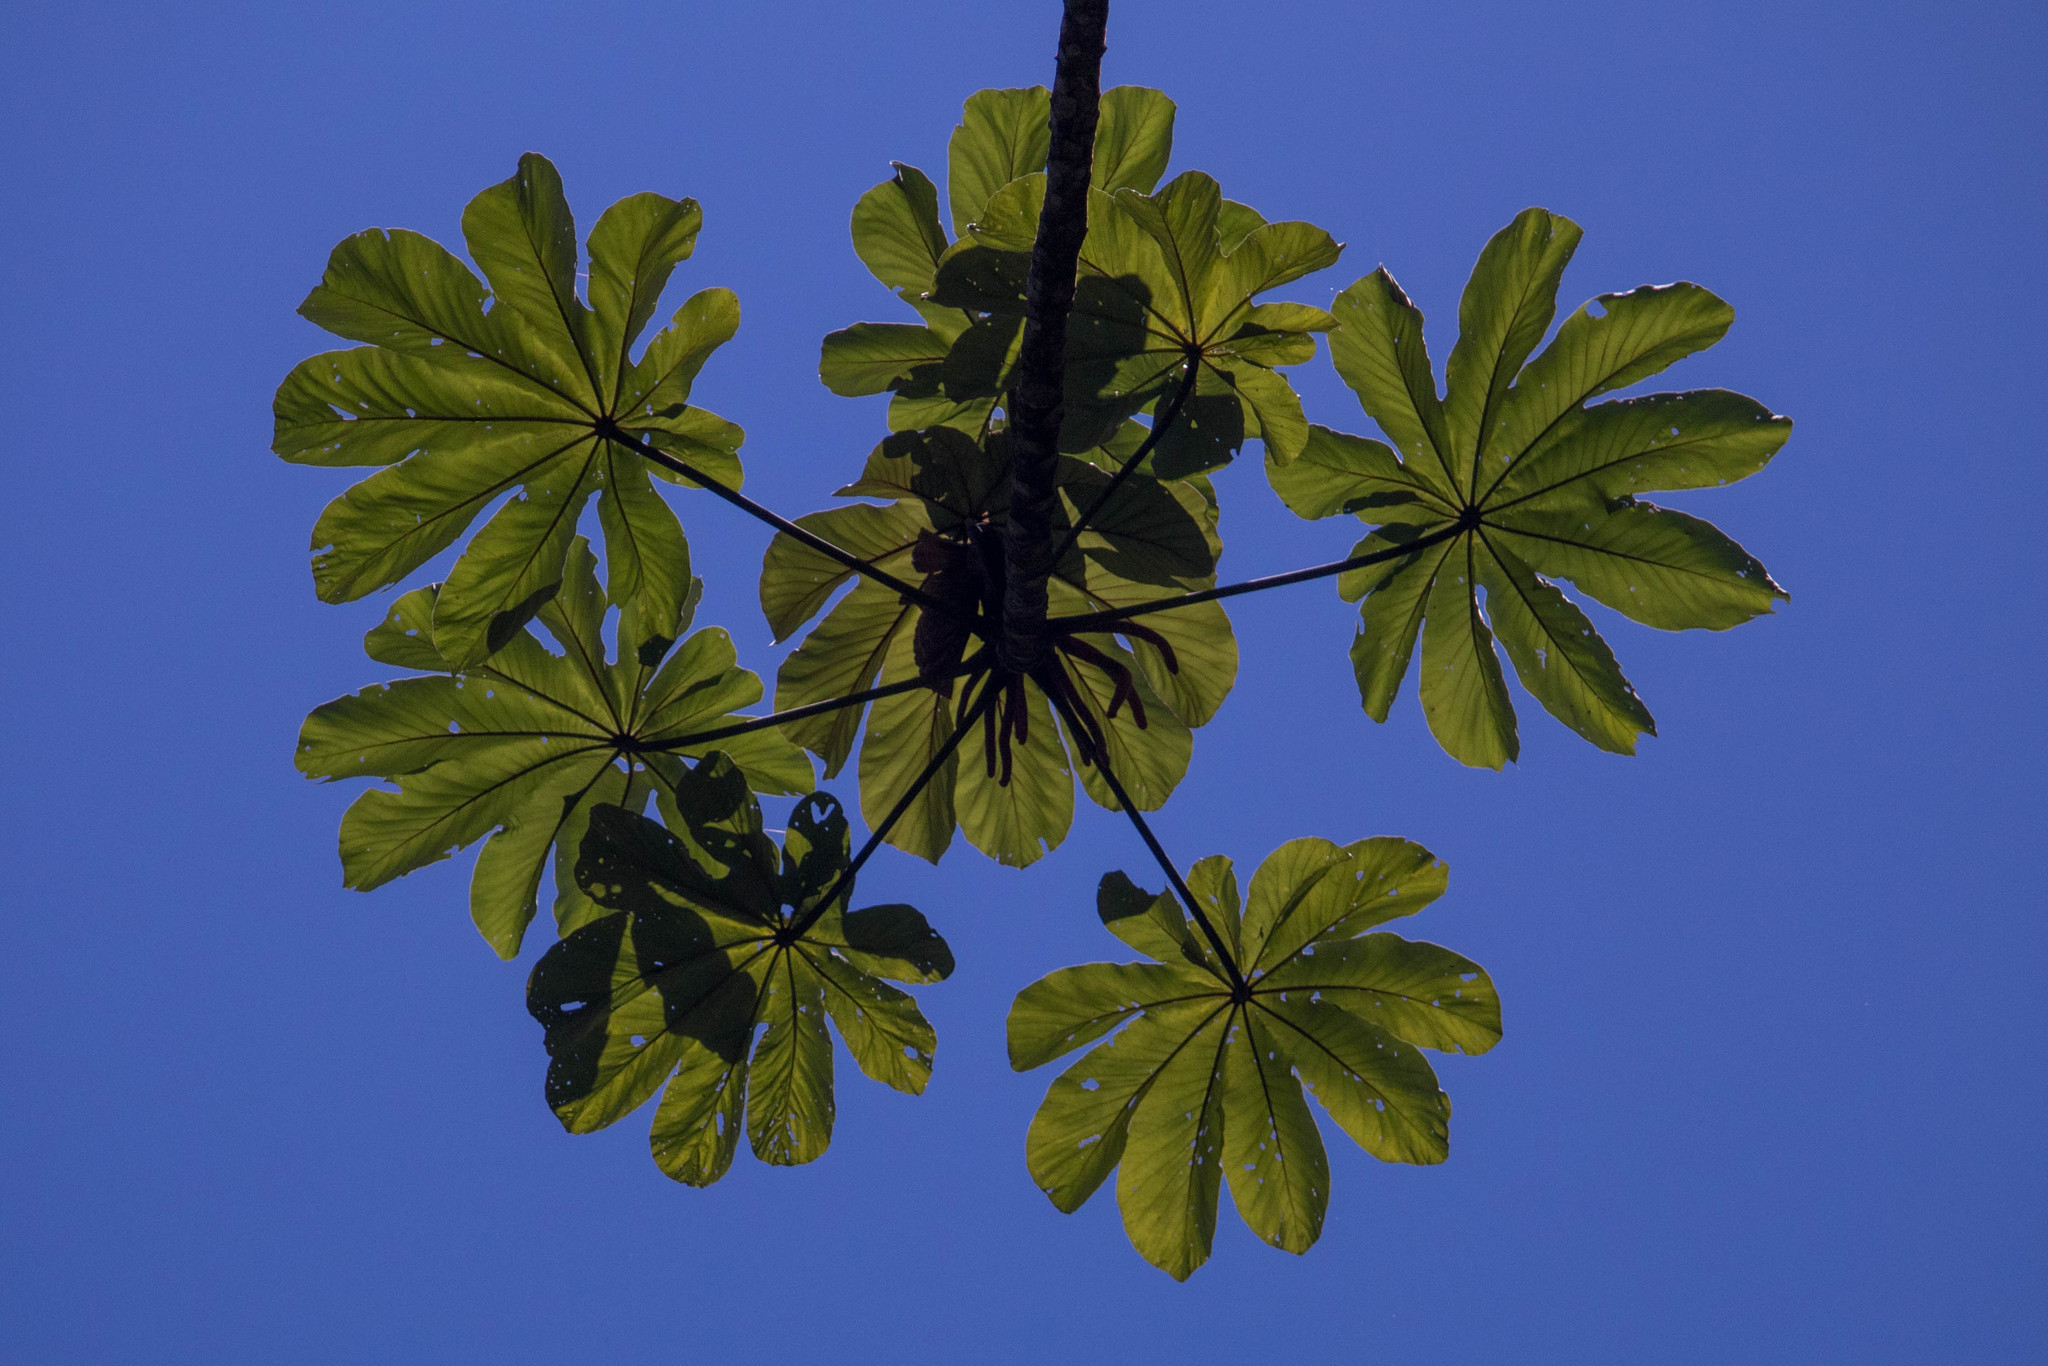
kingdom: Plantae
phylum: Tracheophyta
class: Magnoliopsida
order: Rosales
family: Urticaceae
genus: Cecropia
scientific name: Cecropia glaziovii
